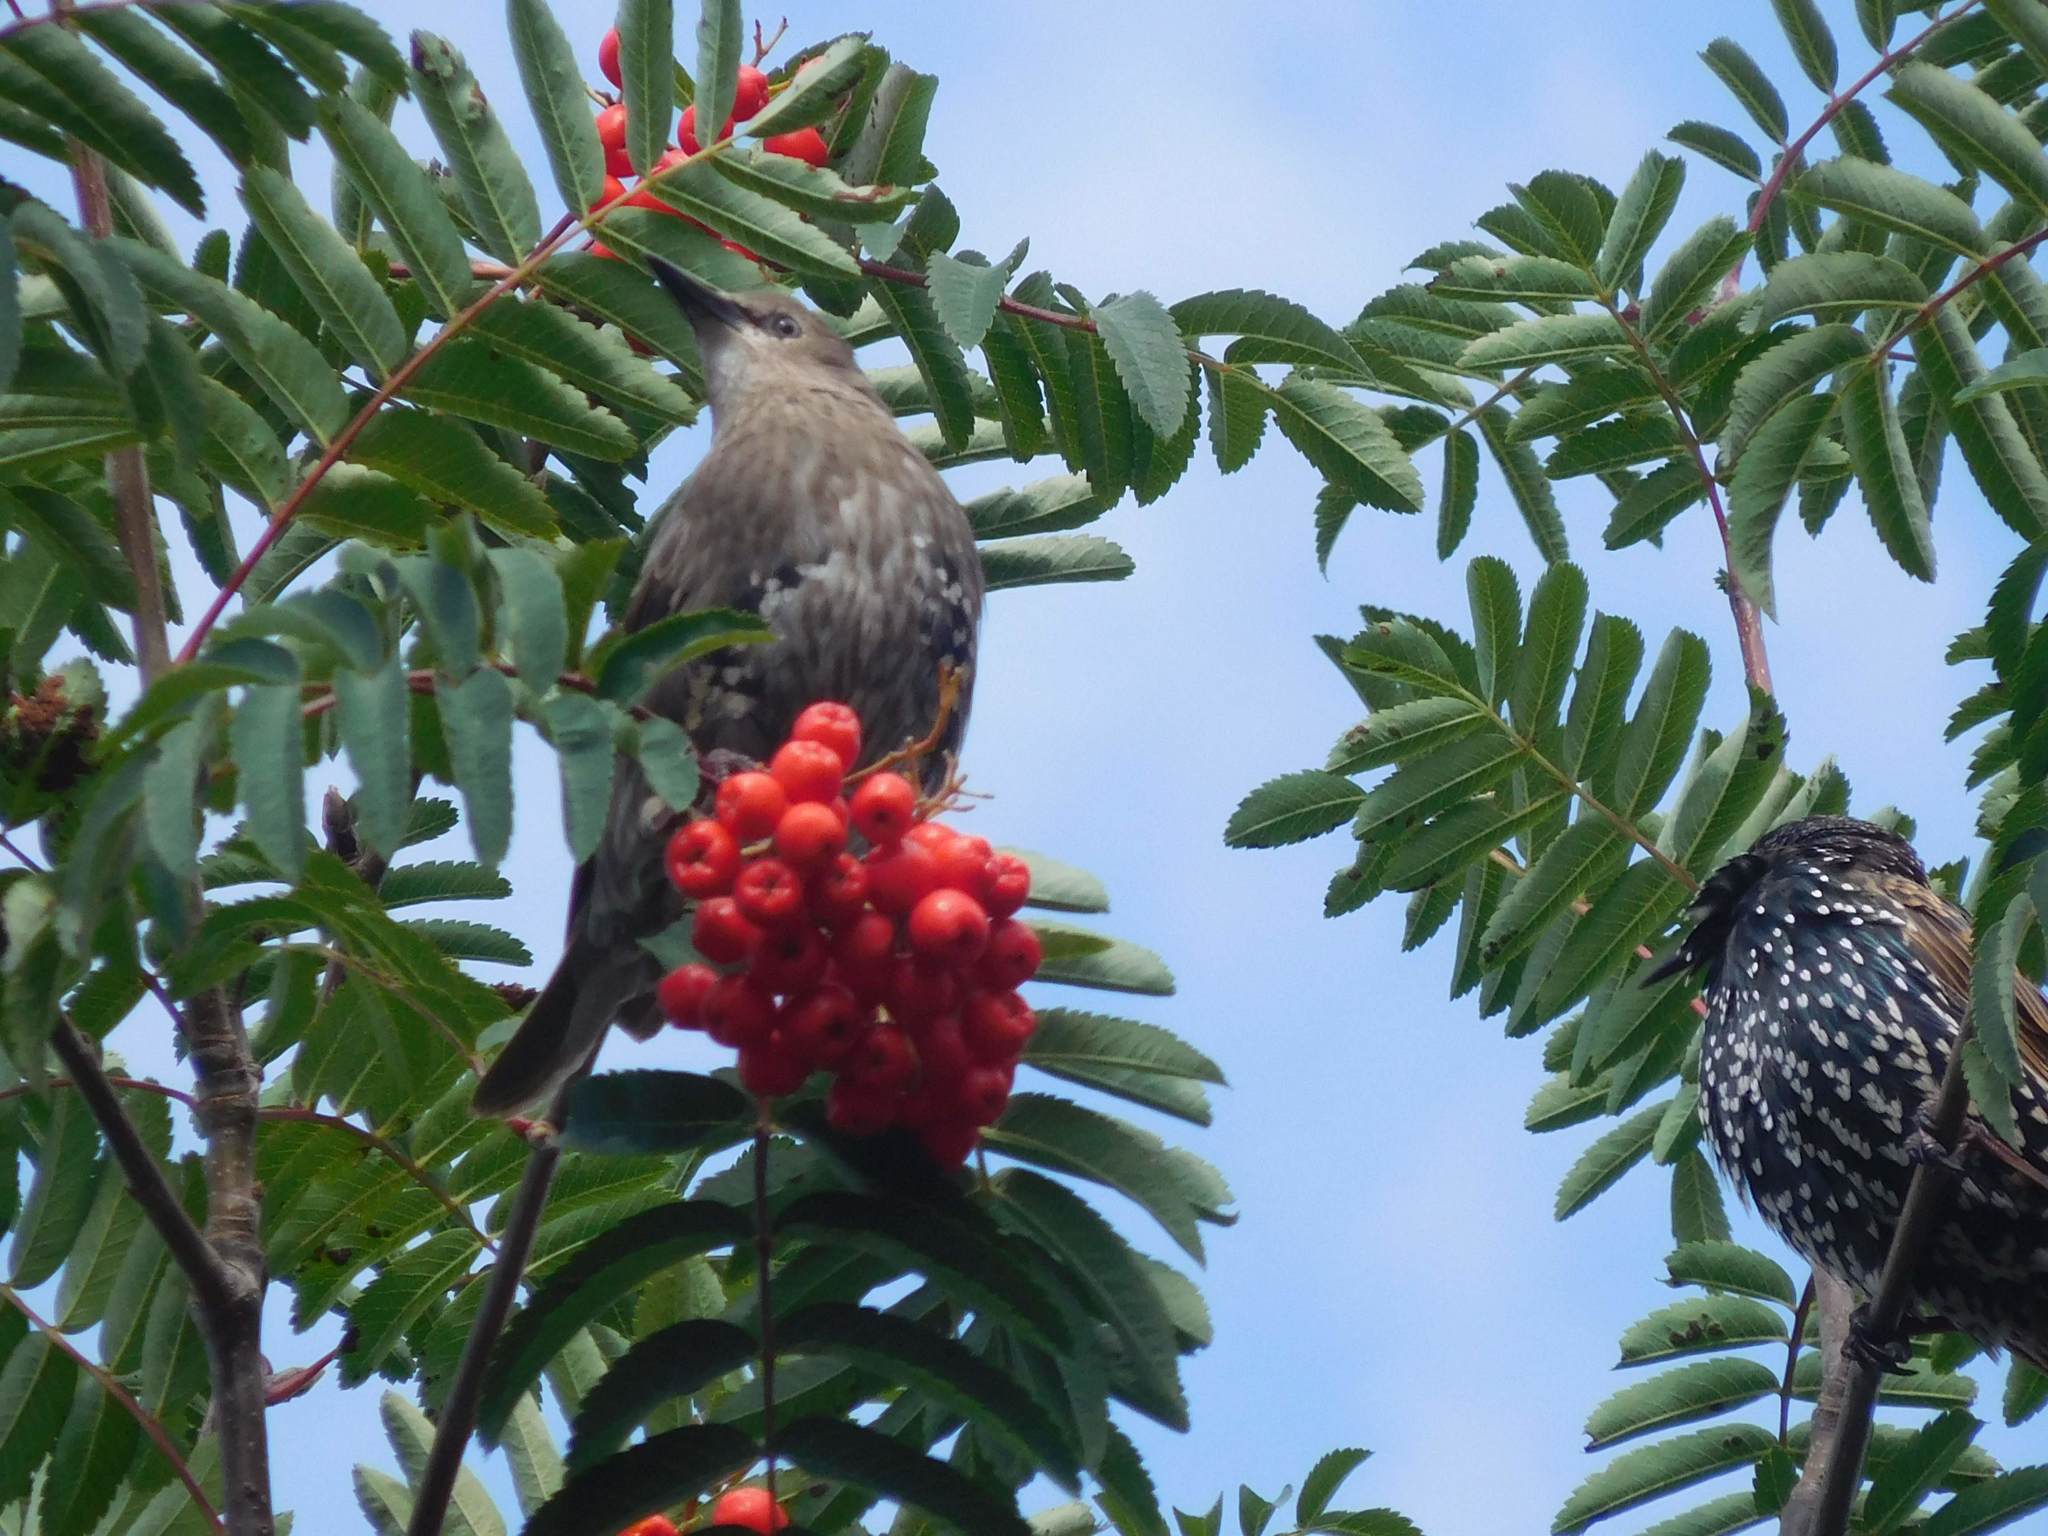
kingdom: Animalia
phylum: Chordata
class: Aves
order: Passeriformes
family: Sturnidae
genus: Sturnus
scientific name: Sturnus vulgaris
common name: Common starling
